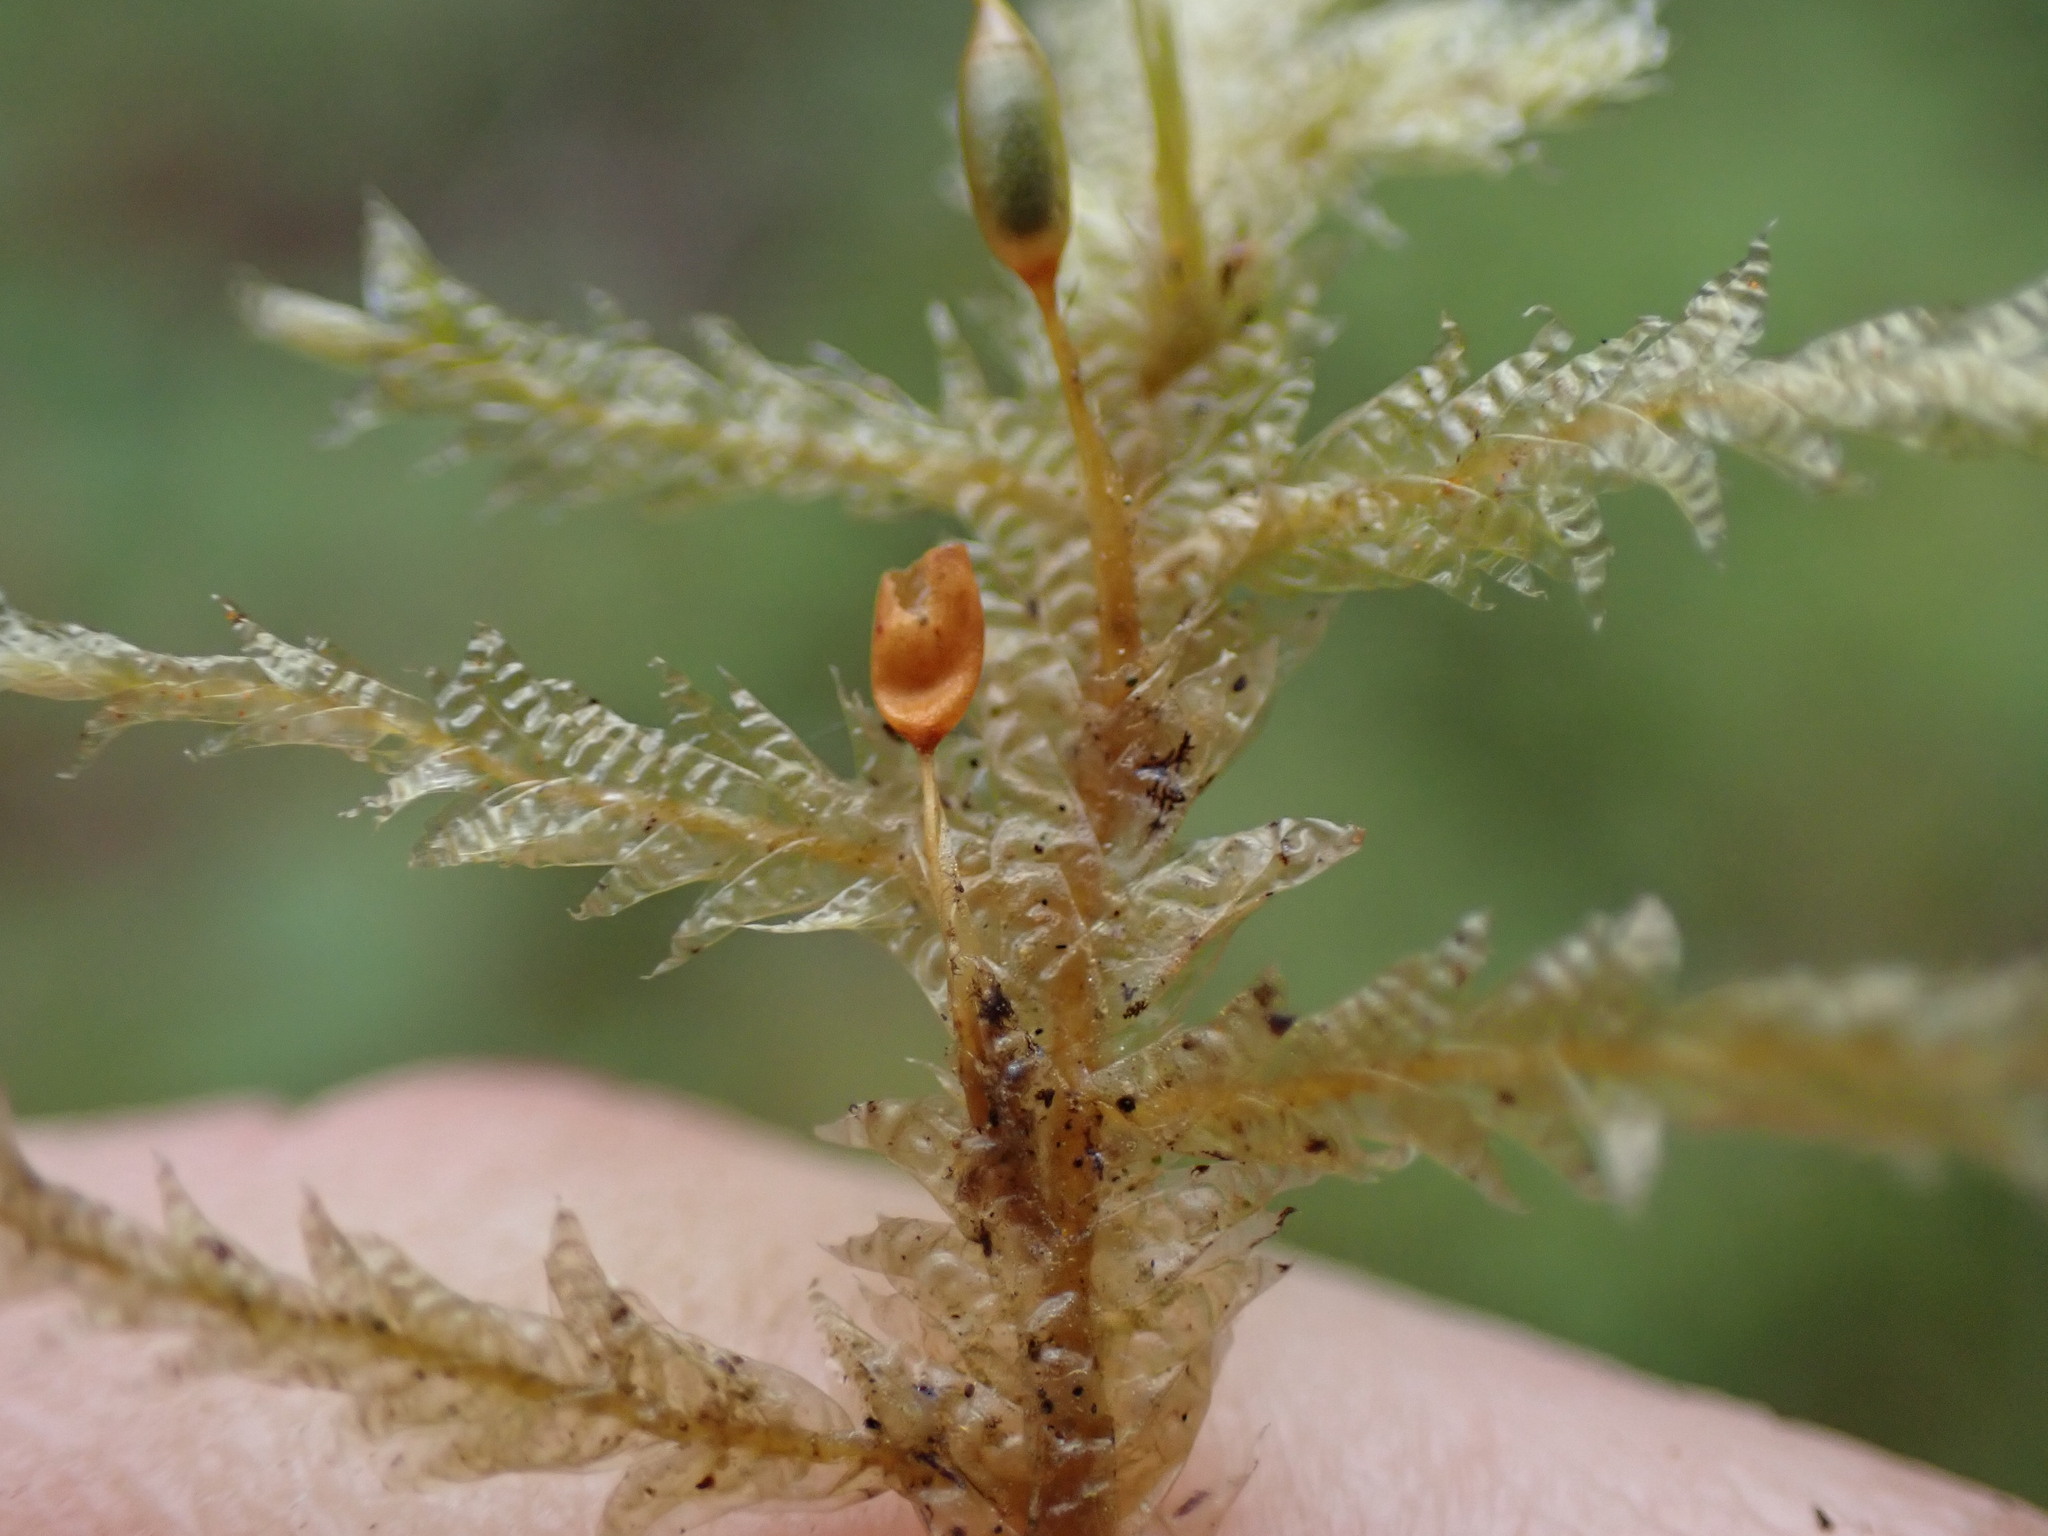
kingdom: Plantae
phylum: Bryophyta
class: Bryopsida
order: Hypnales
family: Neckeraceae
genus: Neckera
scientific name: Neckera douglasii
